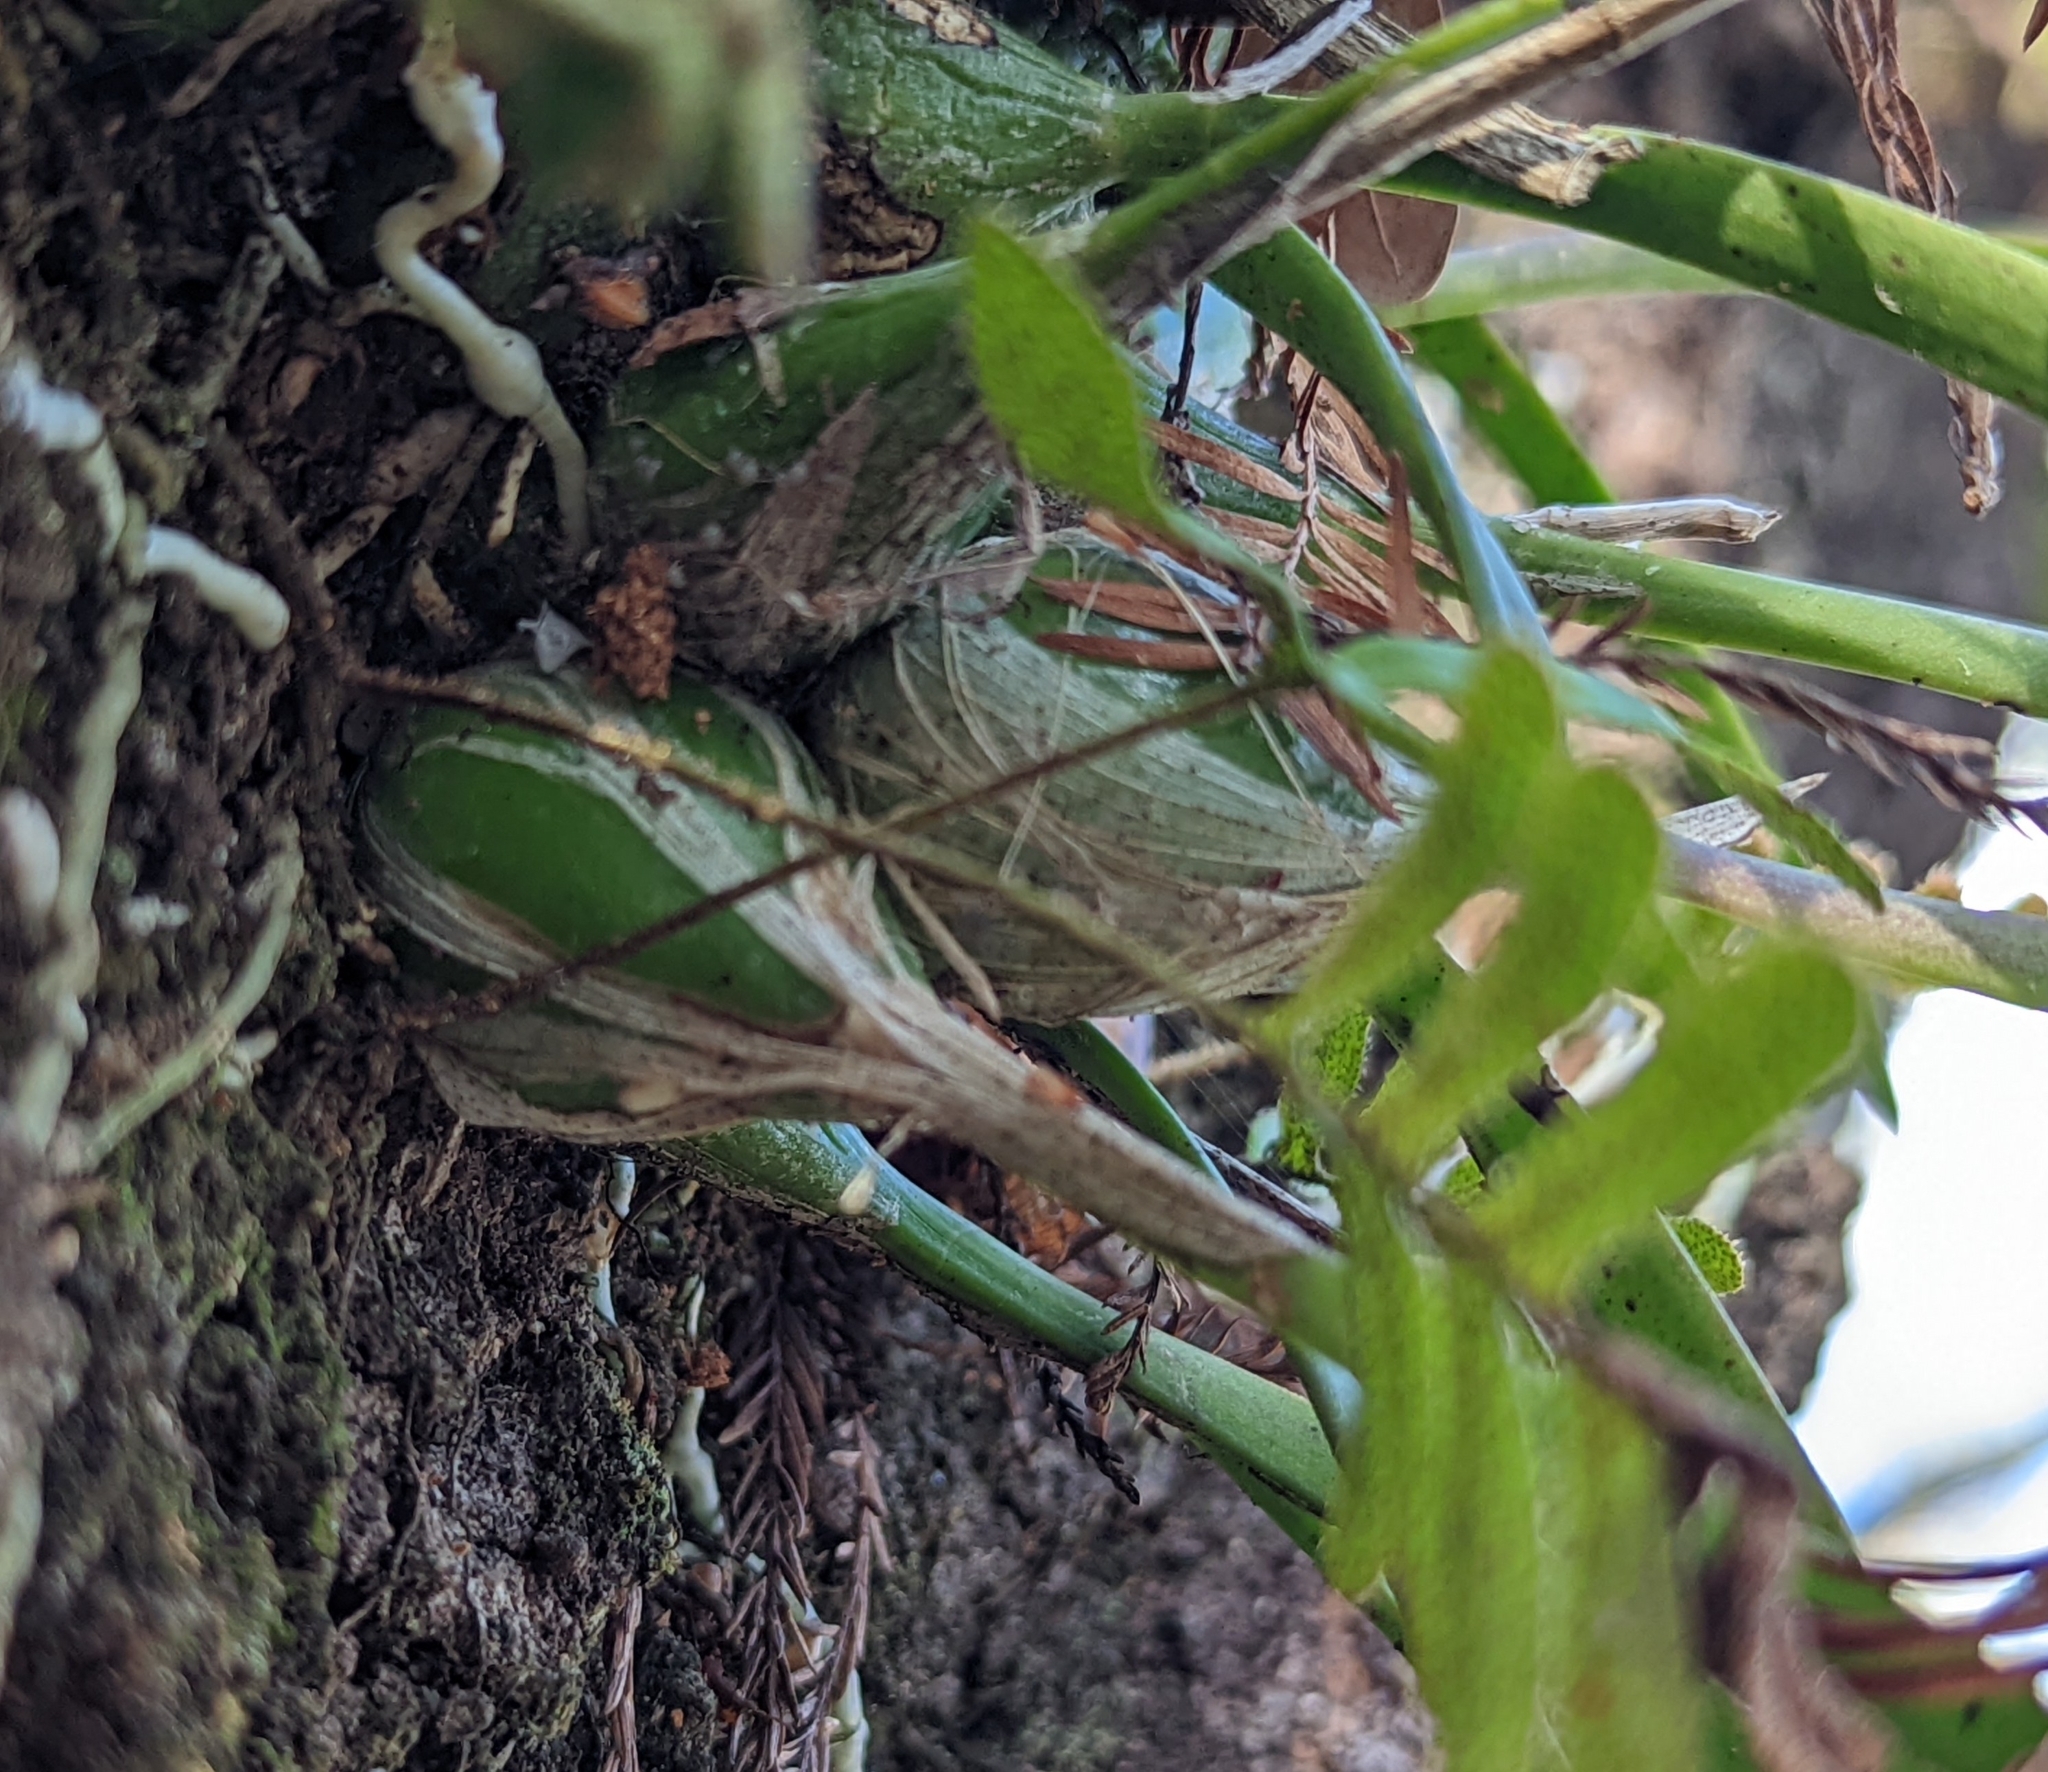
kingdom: Plantae
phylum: Tracheophyta
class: Liliopsida
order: Asparagales
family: Orchidaceae
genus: Encyclia
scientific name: Encyclia tampensis
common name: Florida butterfly orchid
